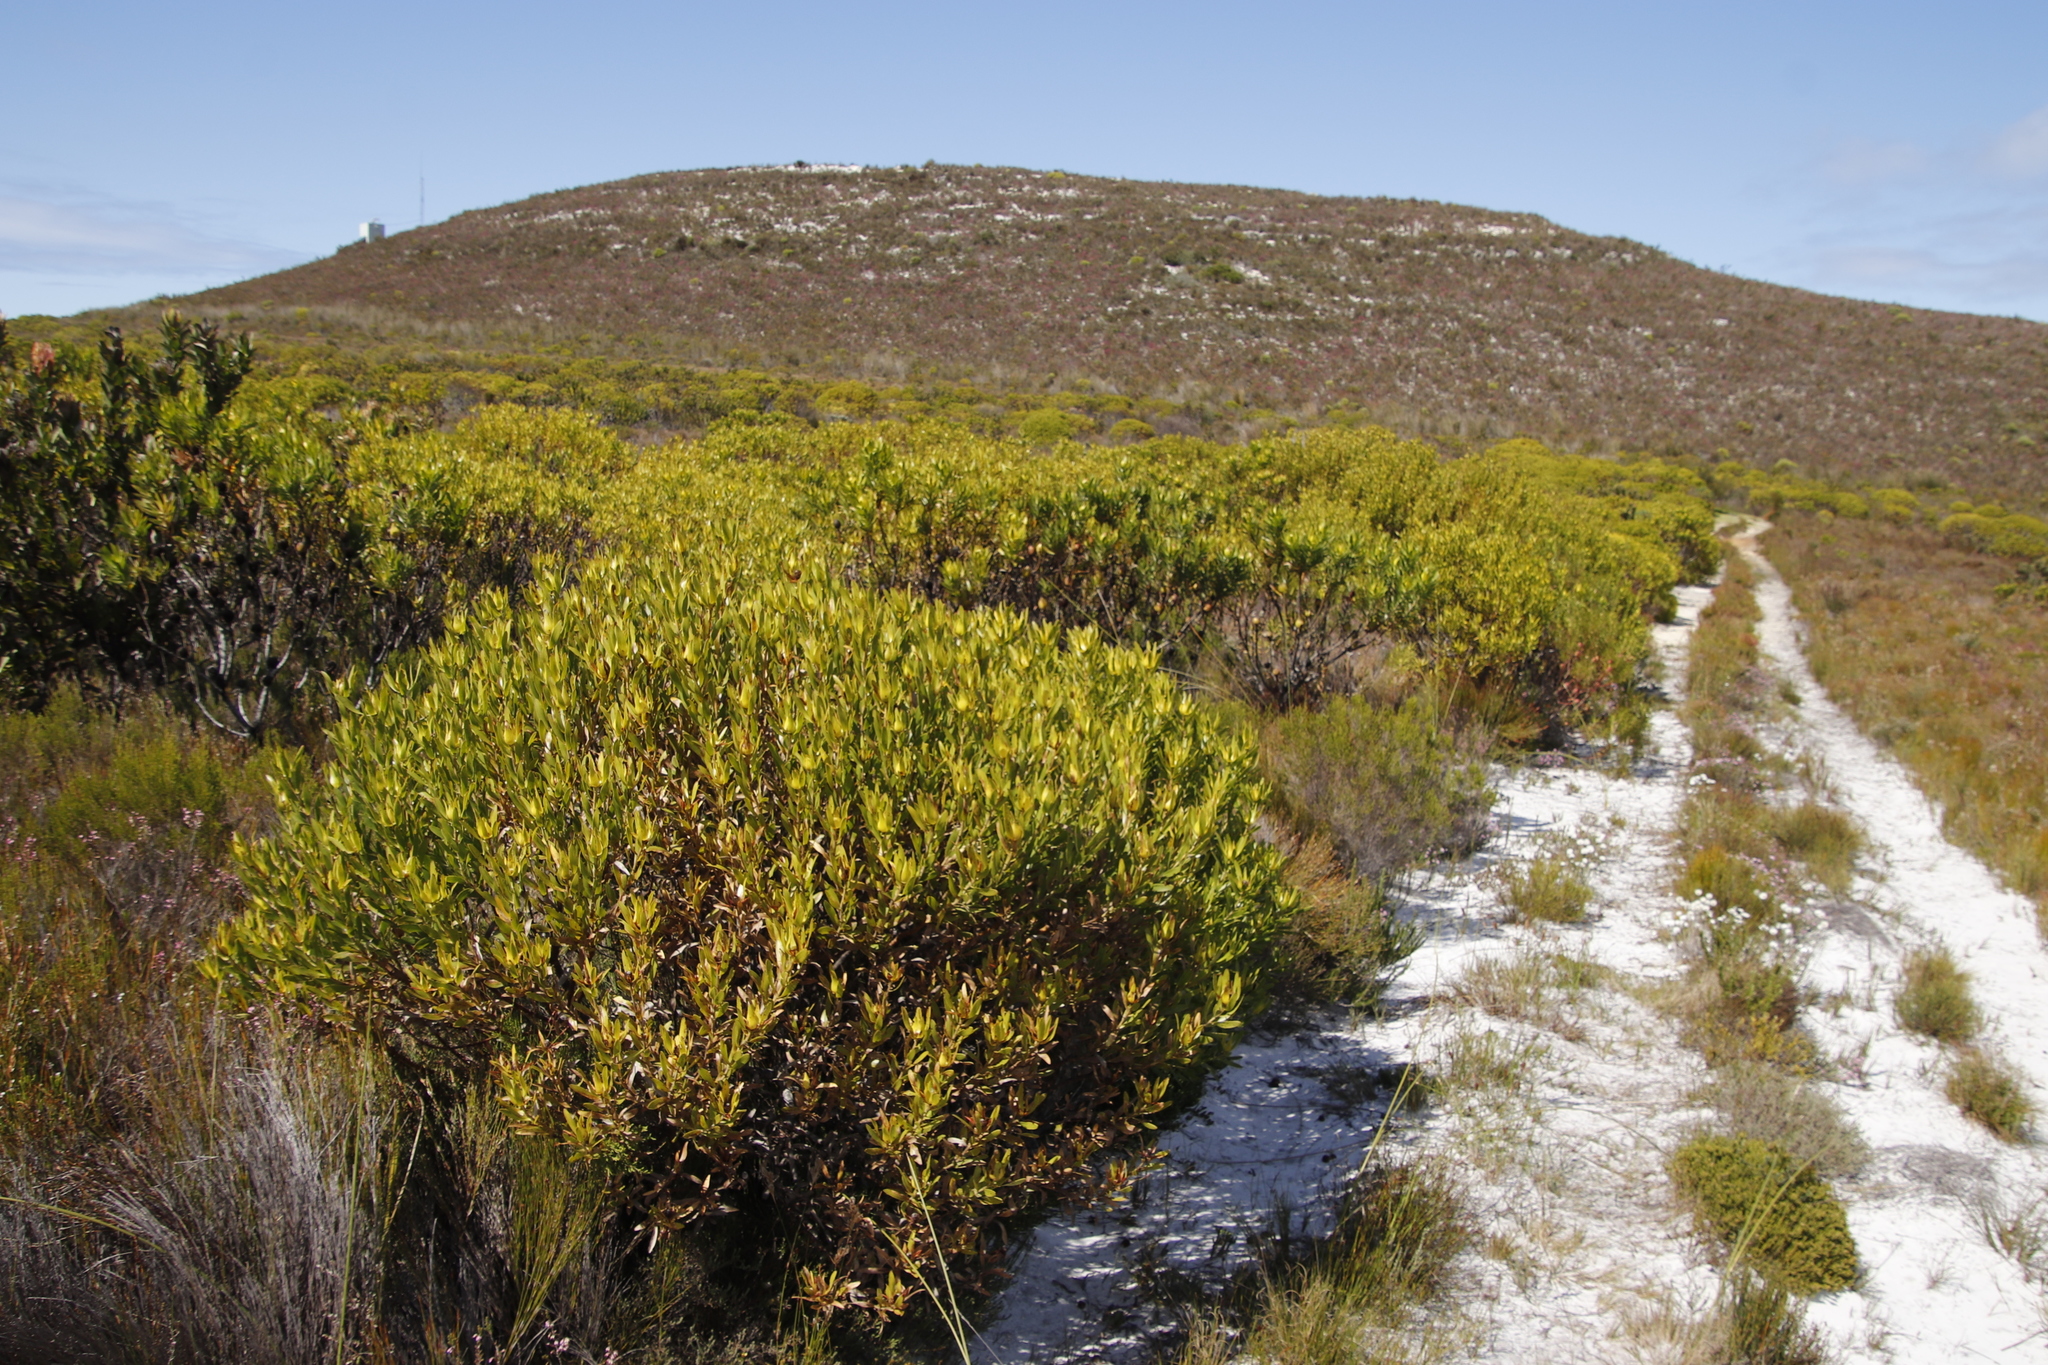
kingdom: Plantae
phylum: Tracheophyta
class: Magnoliopsida
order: Proteales
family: Proteaceae
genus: Leucadendron
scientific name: Leucadendron laureolum
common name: Golden sunshinebush
